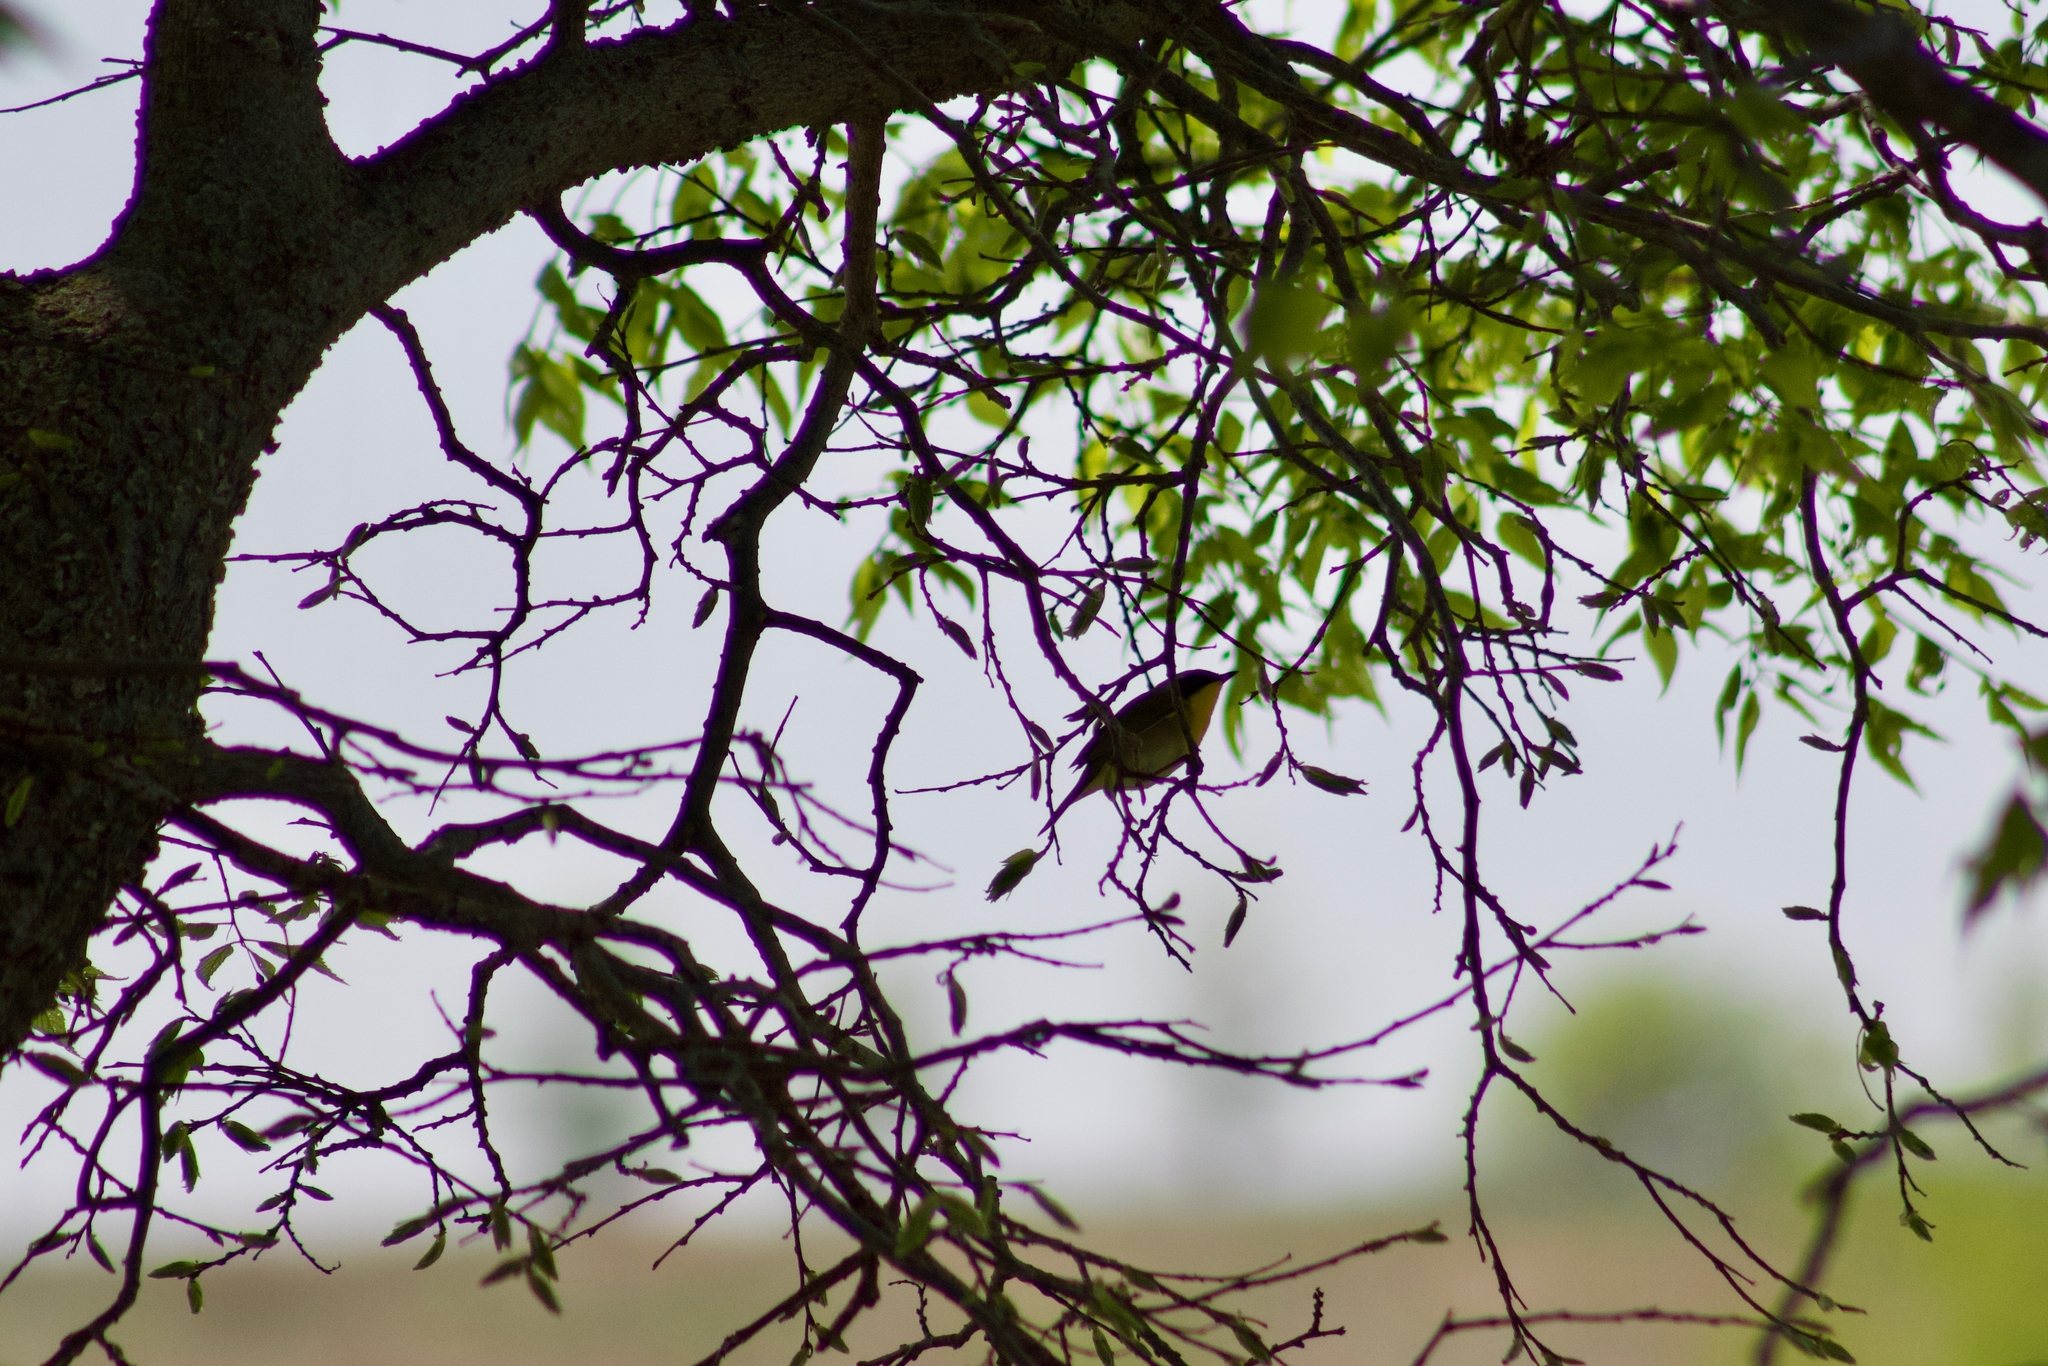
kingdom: Animalia
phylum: Chordata
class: Aves
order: Passeriformes
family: Parulidae
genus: Geothlypis
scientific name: Geothlypis trichas
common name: Common yellowthroat
